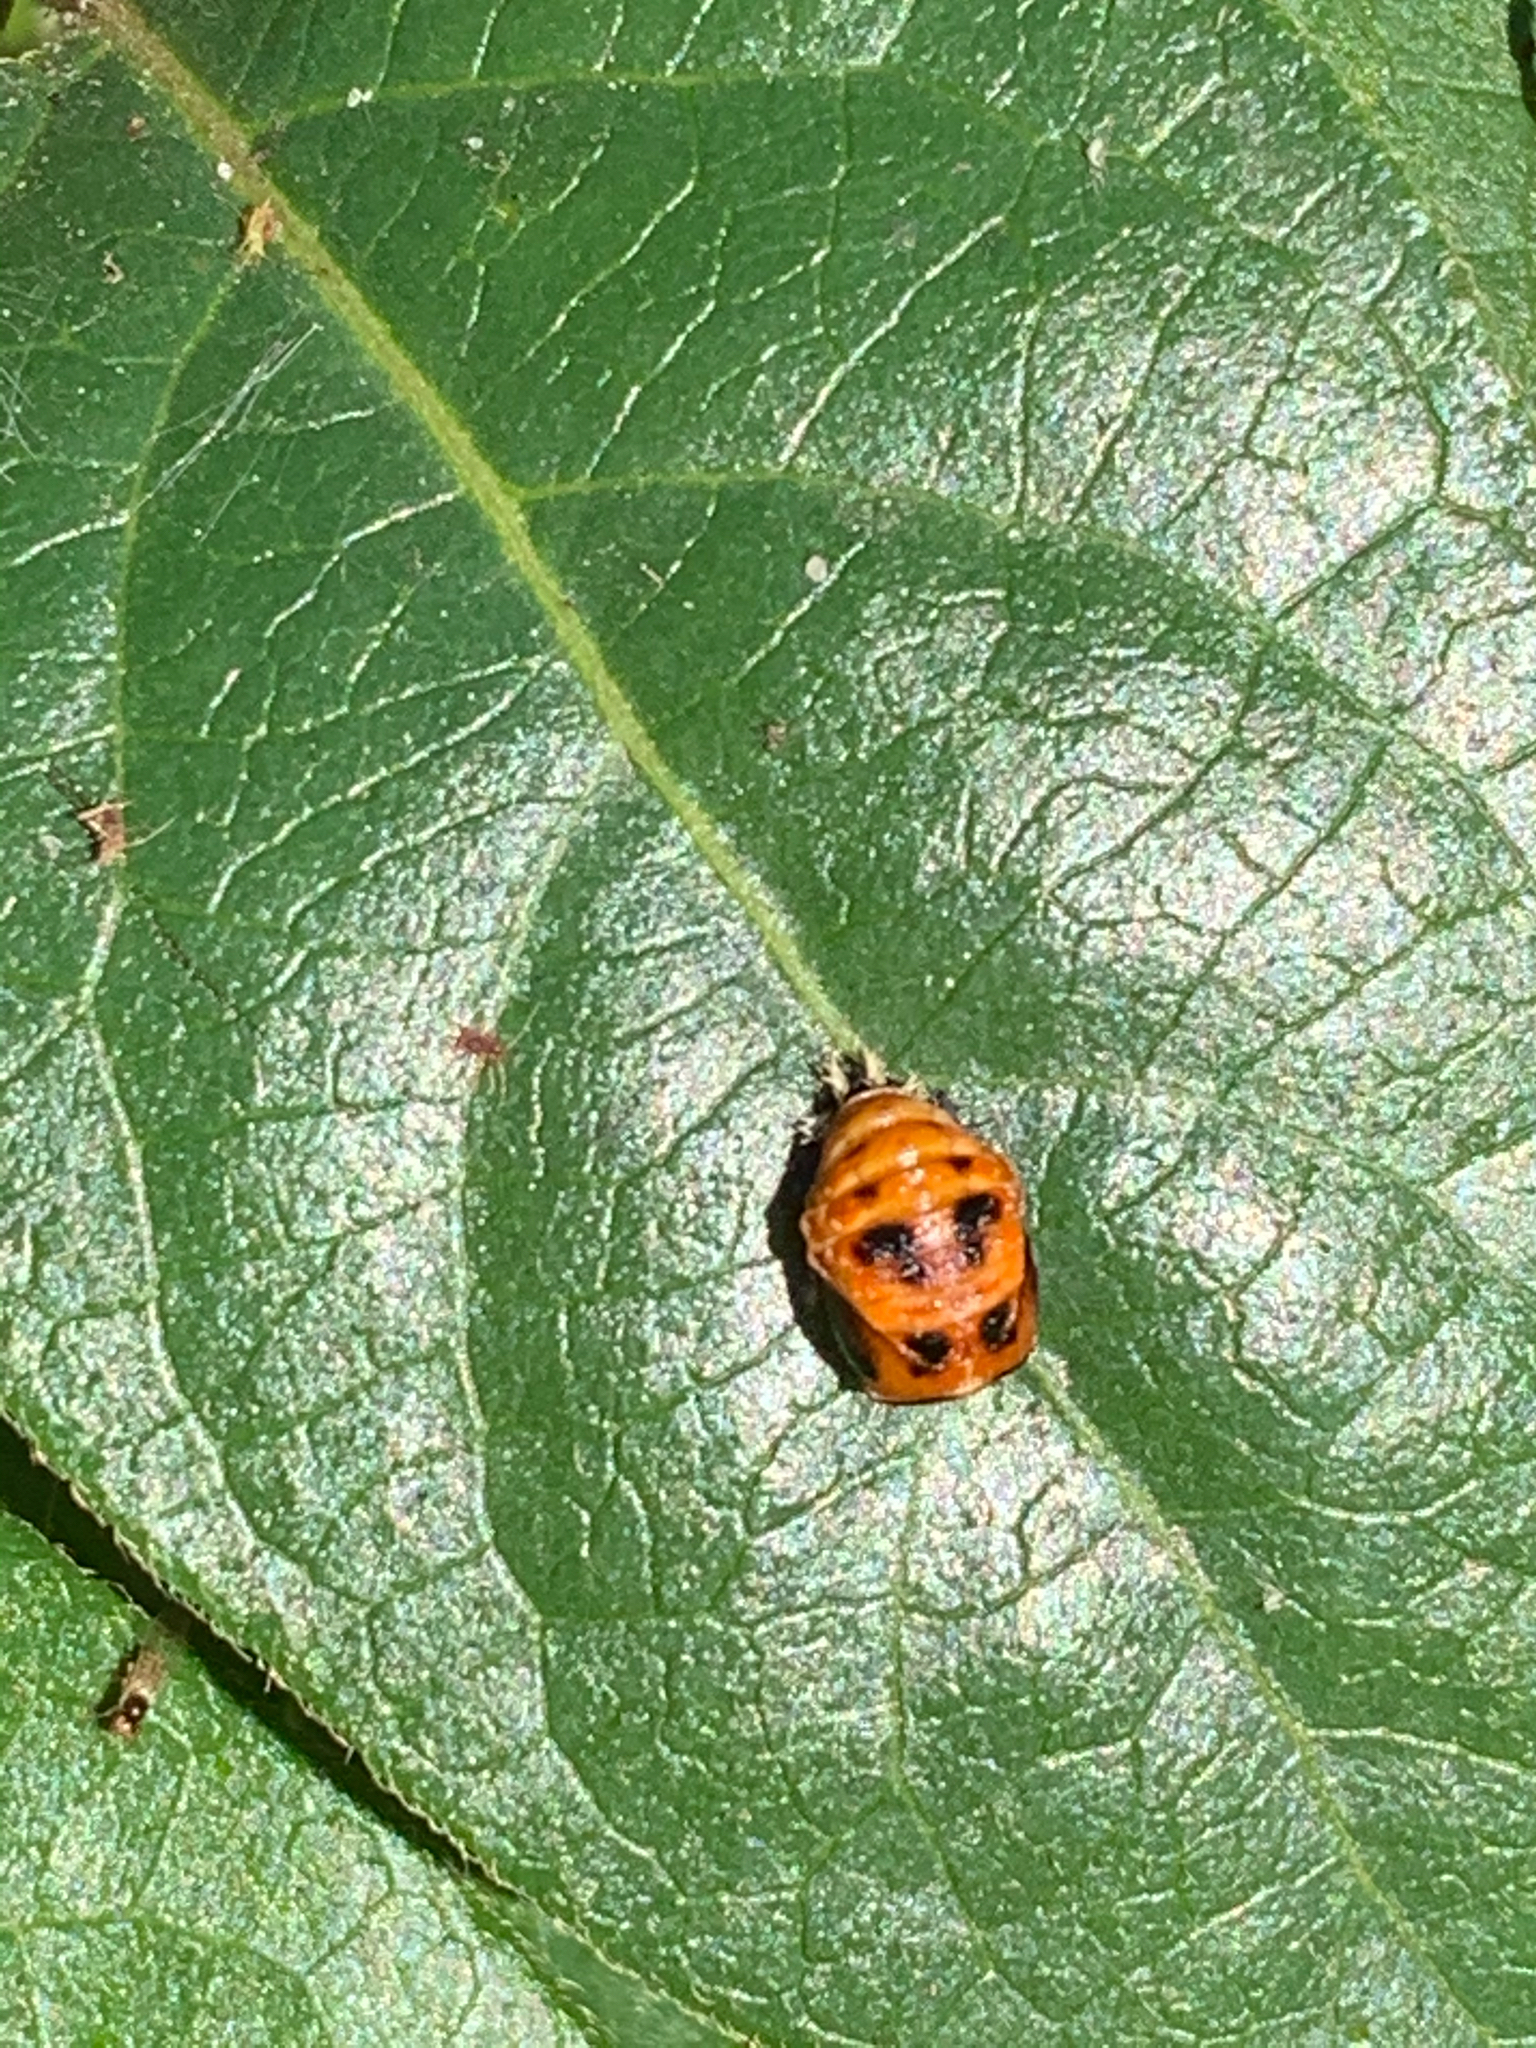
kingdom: Animalia
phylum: Arthropoda
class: Insecta
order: Coleoptera
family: Coccinellidae
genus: Harmonia
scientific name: Harmonia axyridis
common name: Harlequin ladybird
